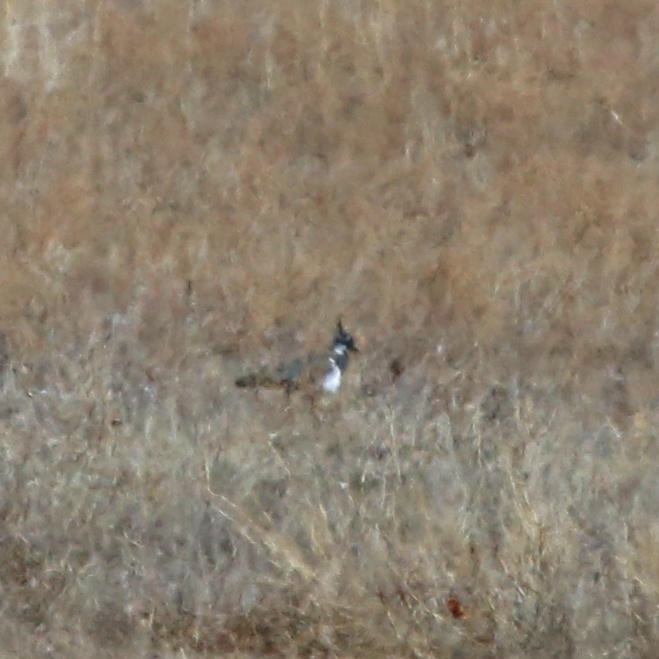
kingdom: Animalia
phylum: Chordata
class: Aves
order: Charadriiformes
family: Charadriidae
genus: Vanellus
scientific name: Vanellus vanellus
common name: Northern lapwing
